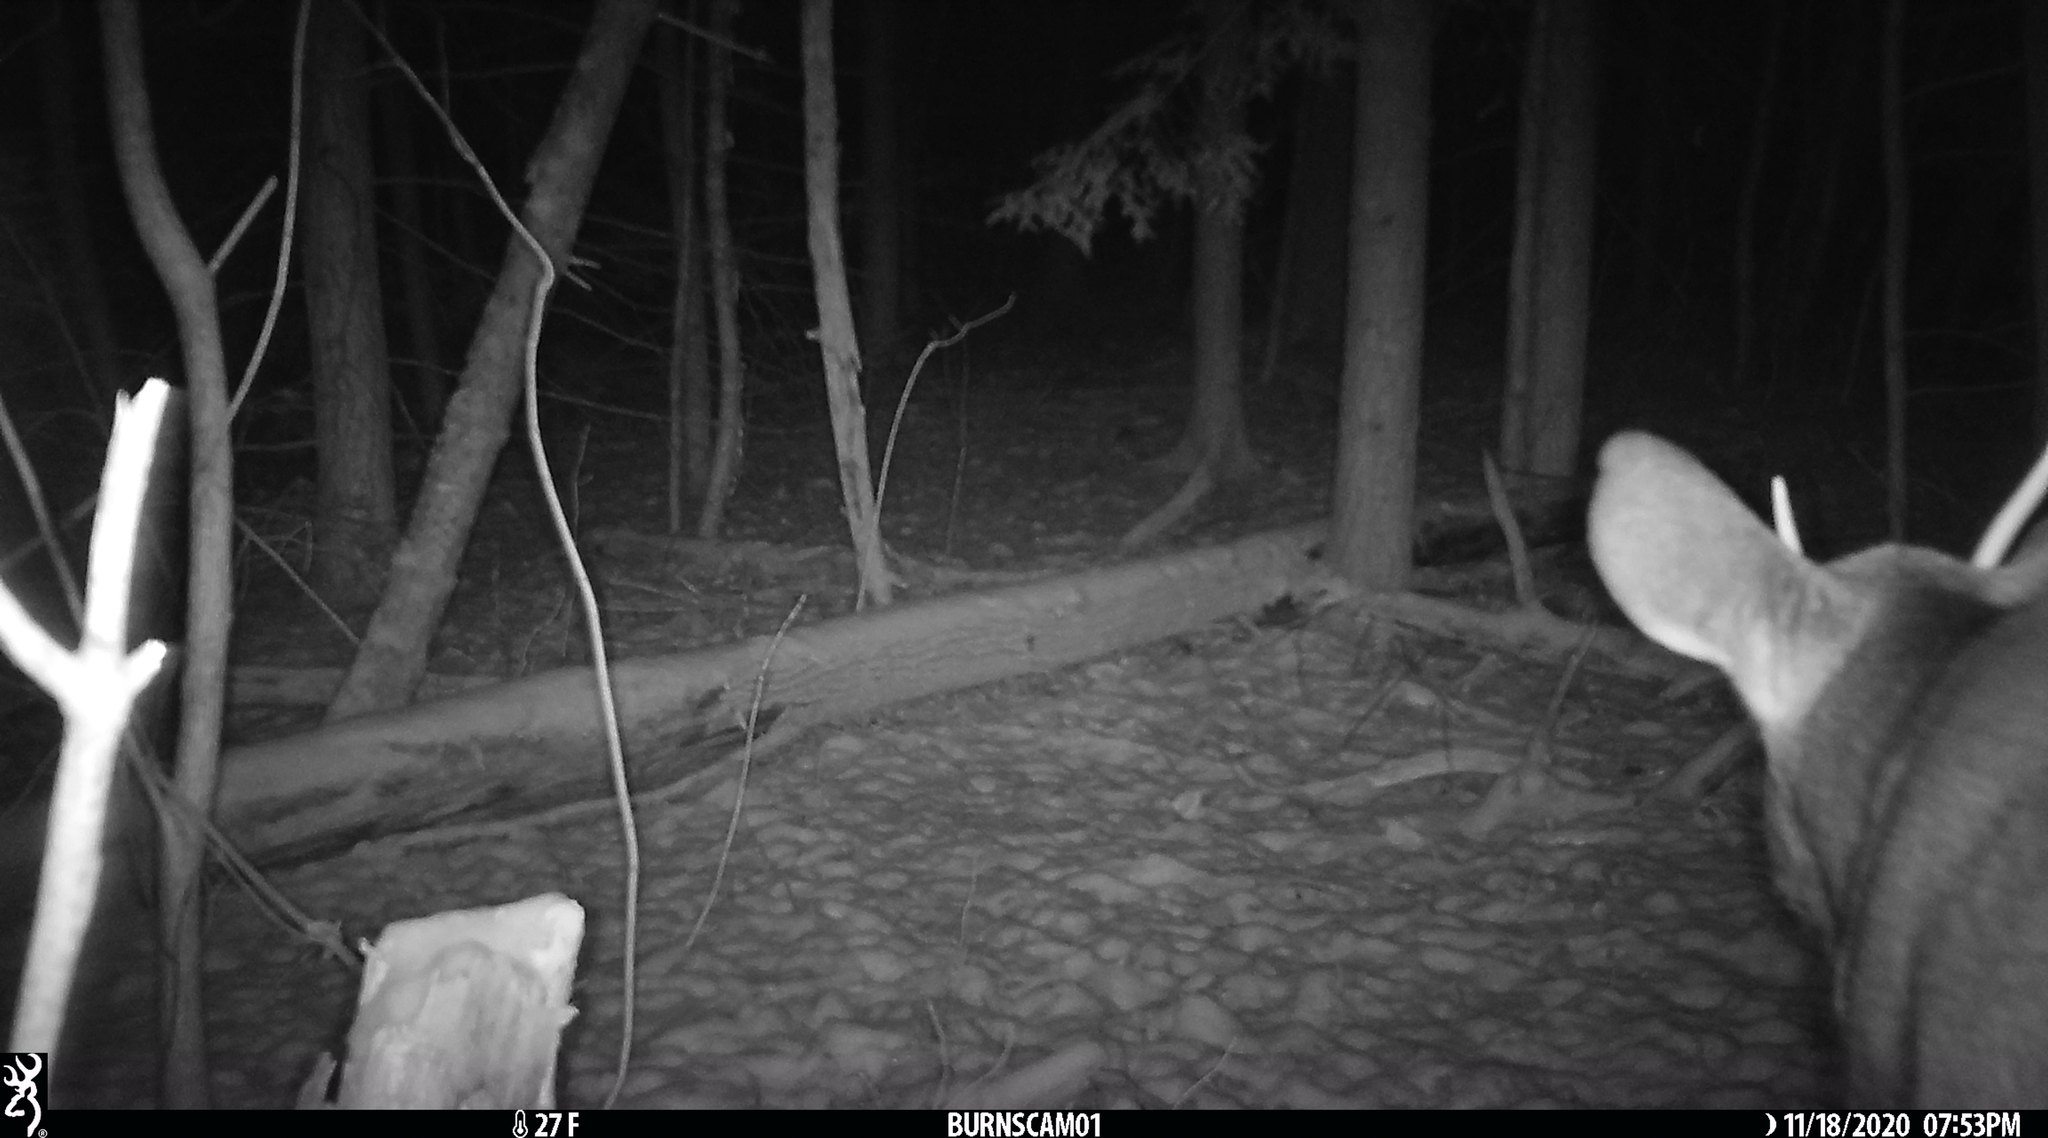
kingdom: Animalia
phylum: Chordata
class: Mammalia
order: Artiodactyla
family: Cervidae
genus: Odocoileus
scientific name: Odocoileus virginianus
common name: White-tailed deer
